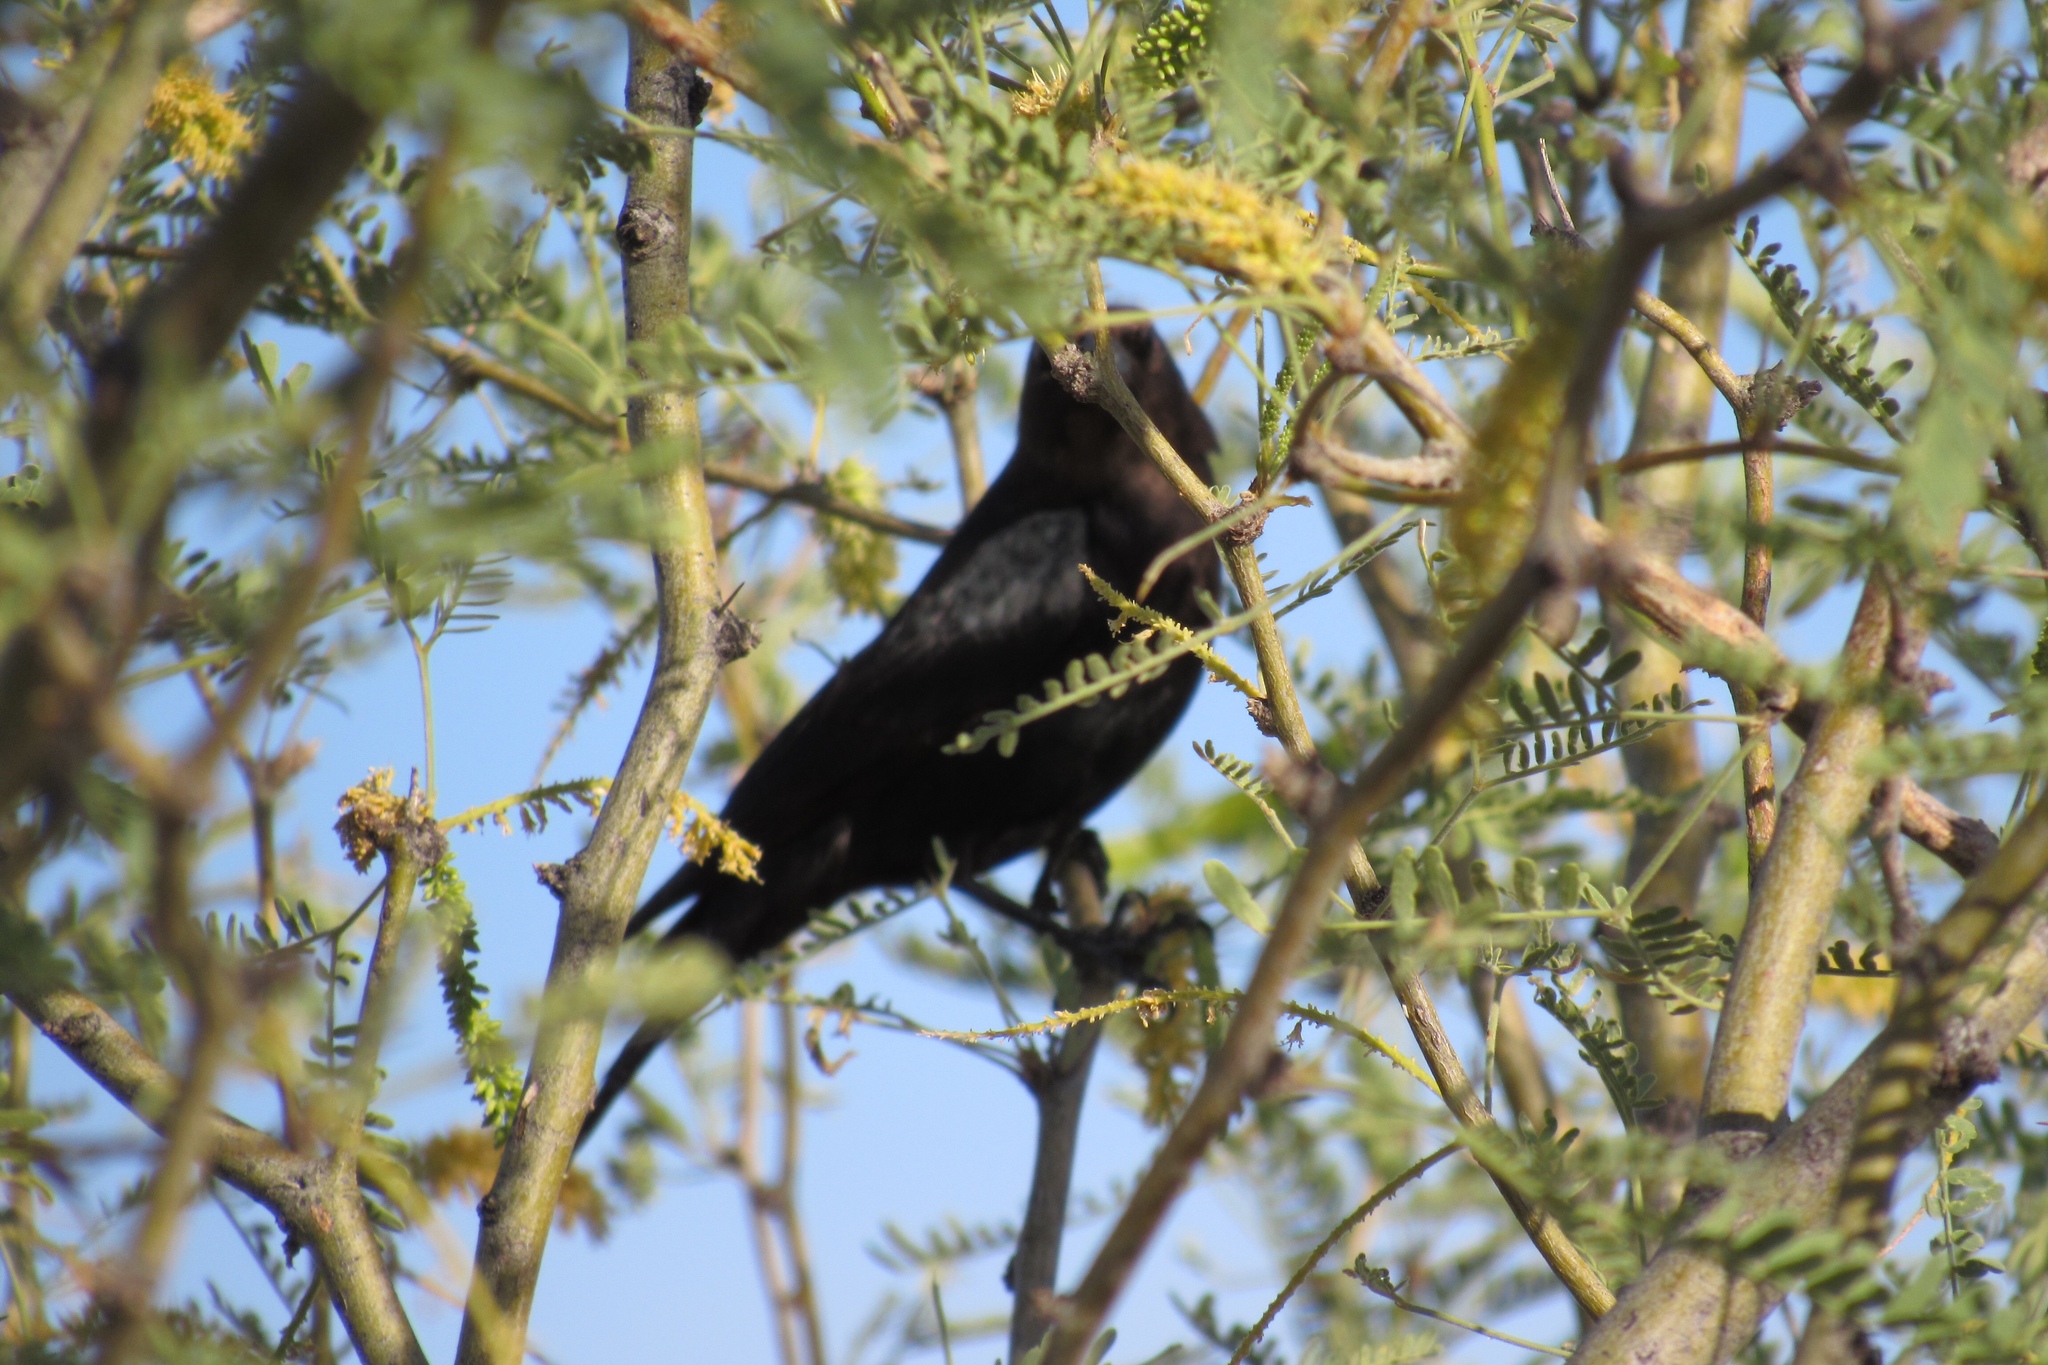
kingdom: Animalia
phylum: Chordata
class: Aves
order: Passeriformes
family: Icteridae
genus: Molothrus
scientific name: Molothrus ater
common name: Brown-headed cowbird
